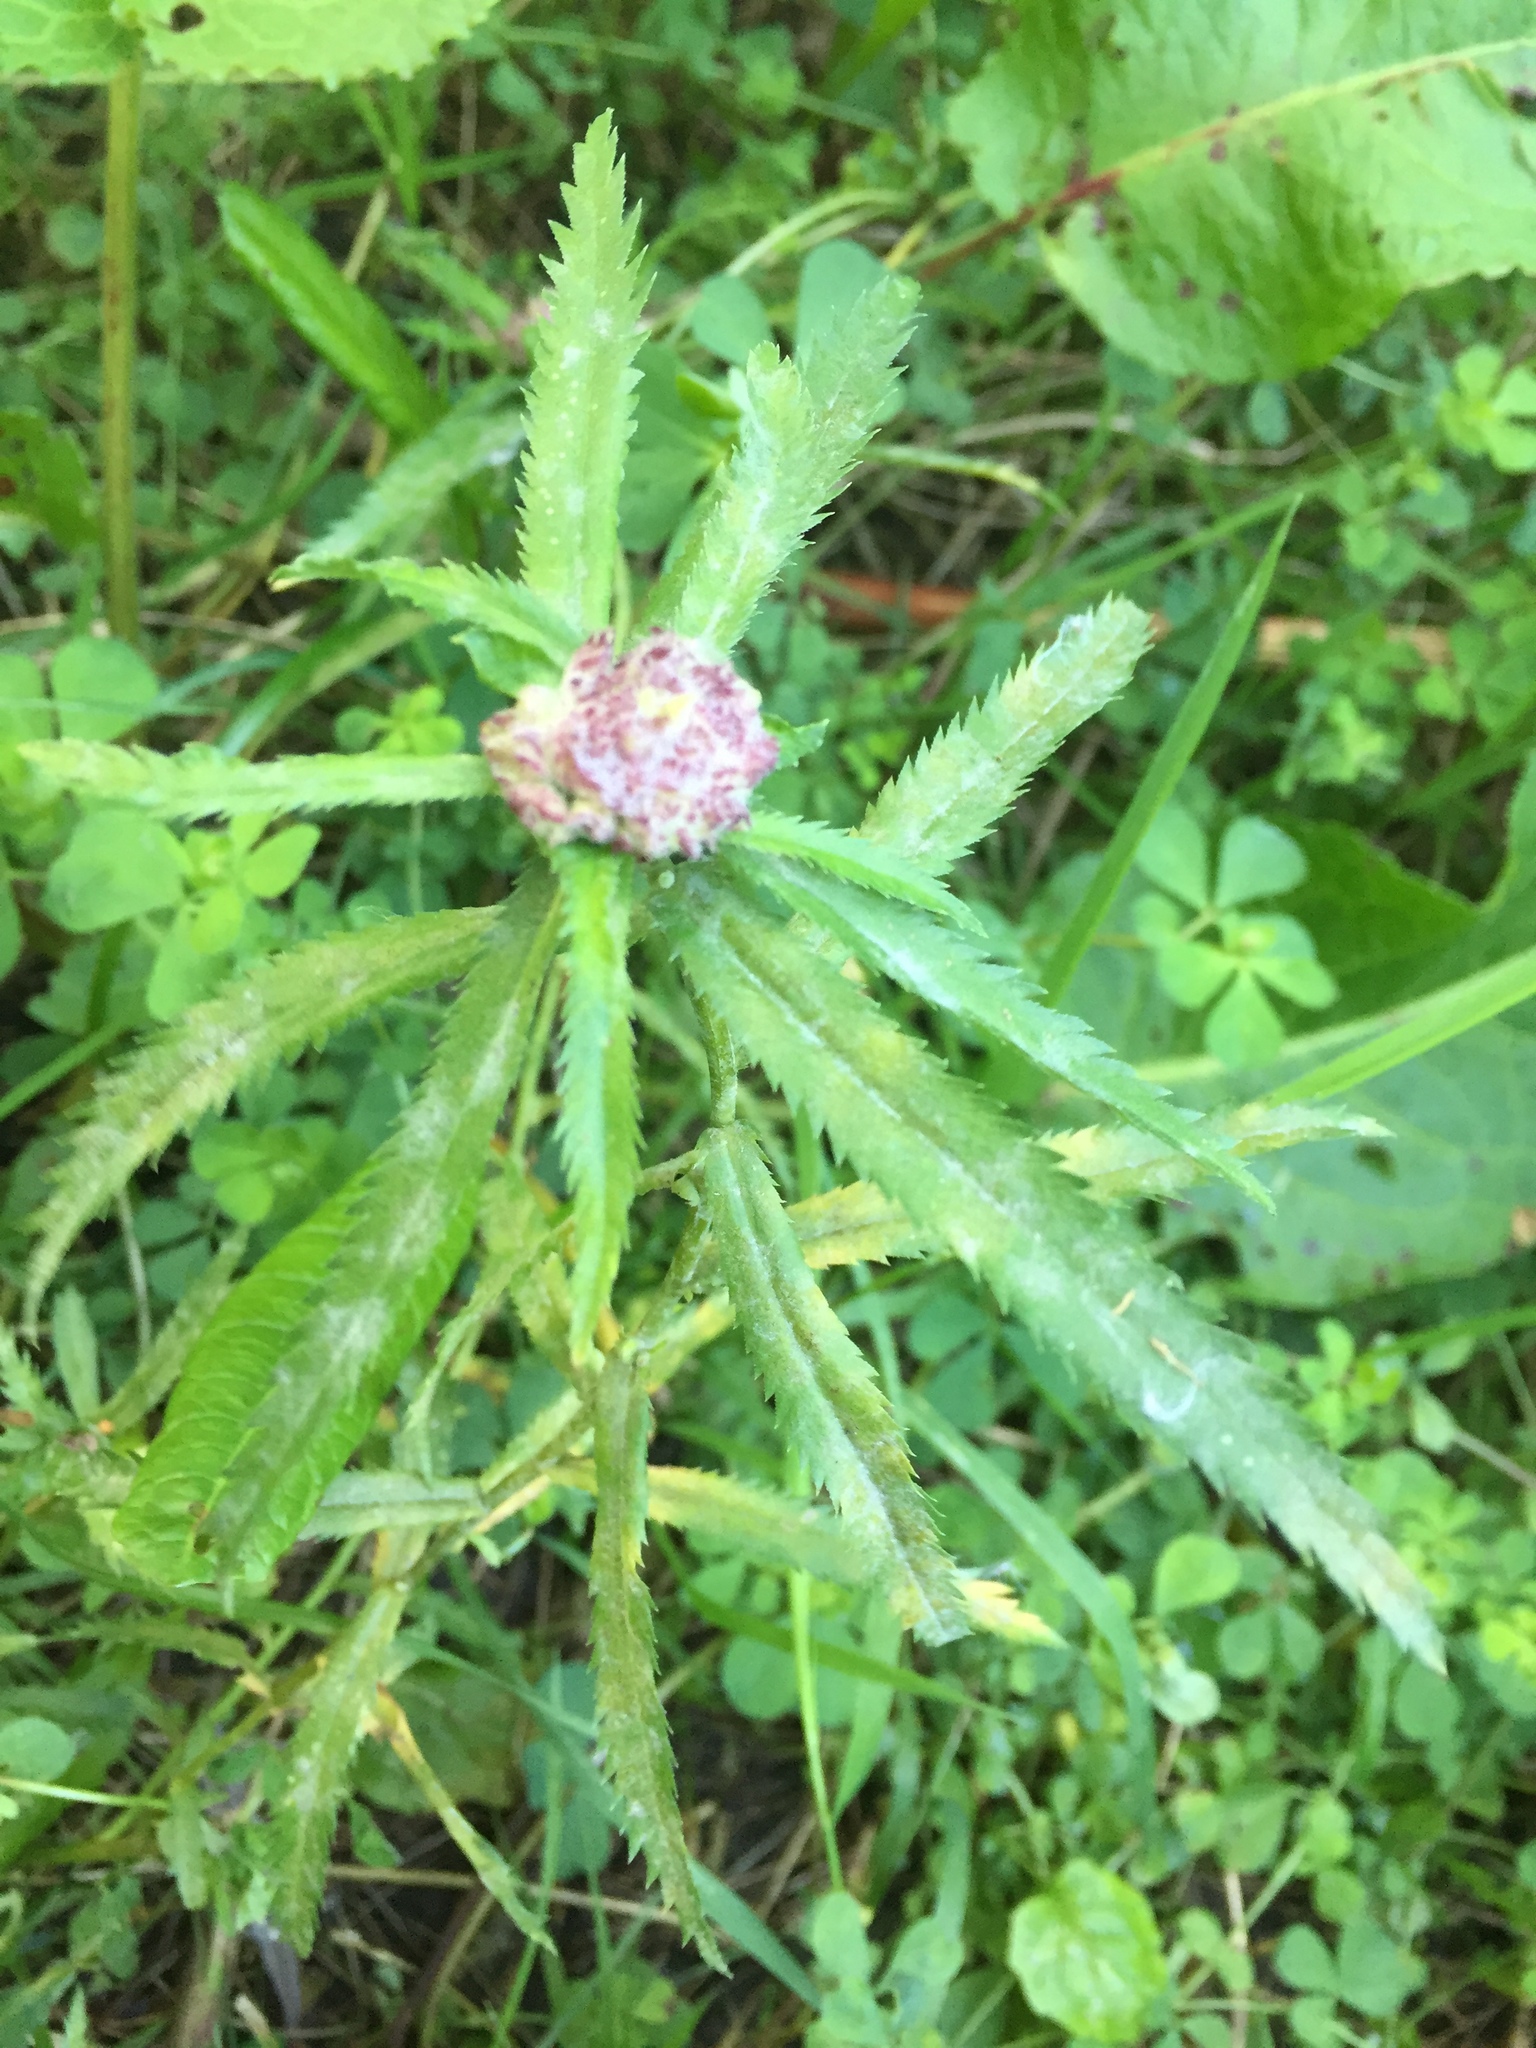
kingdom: Animalia
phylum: Arthropoda
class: Insecta
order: Diptera
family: Cecidomyiidae
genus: Rhopalomyia
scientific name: Rhopalomyia ptarmicae
